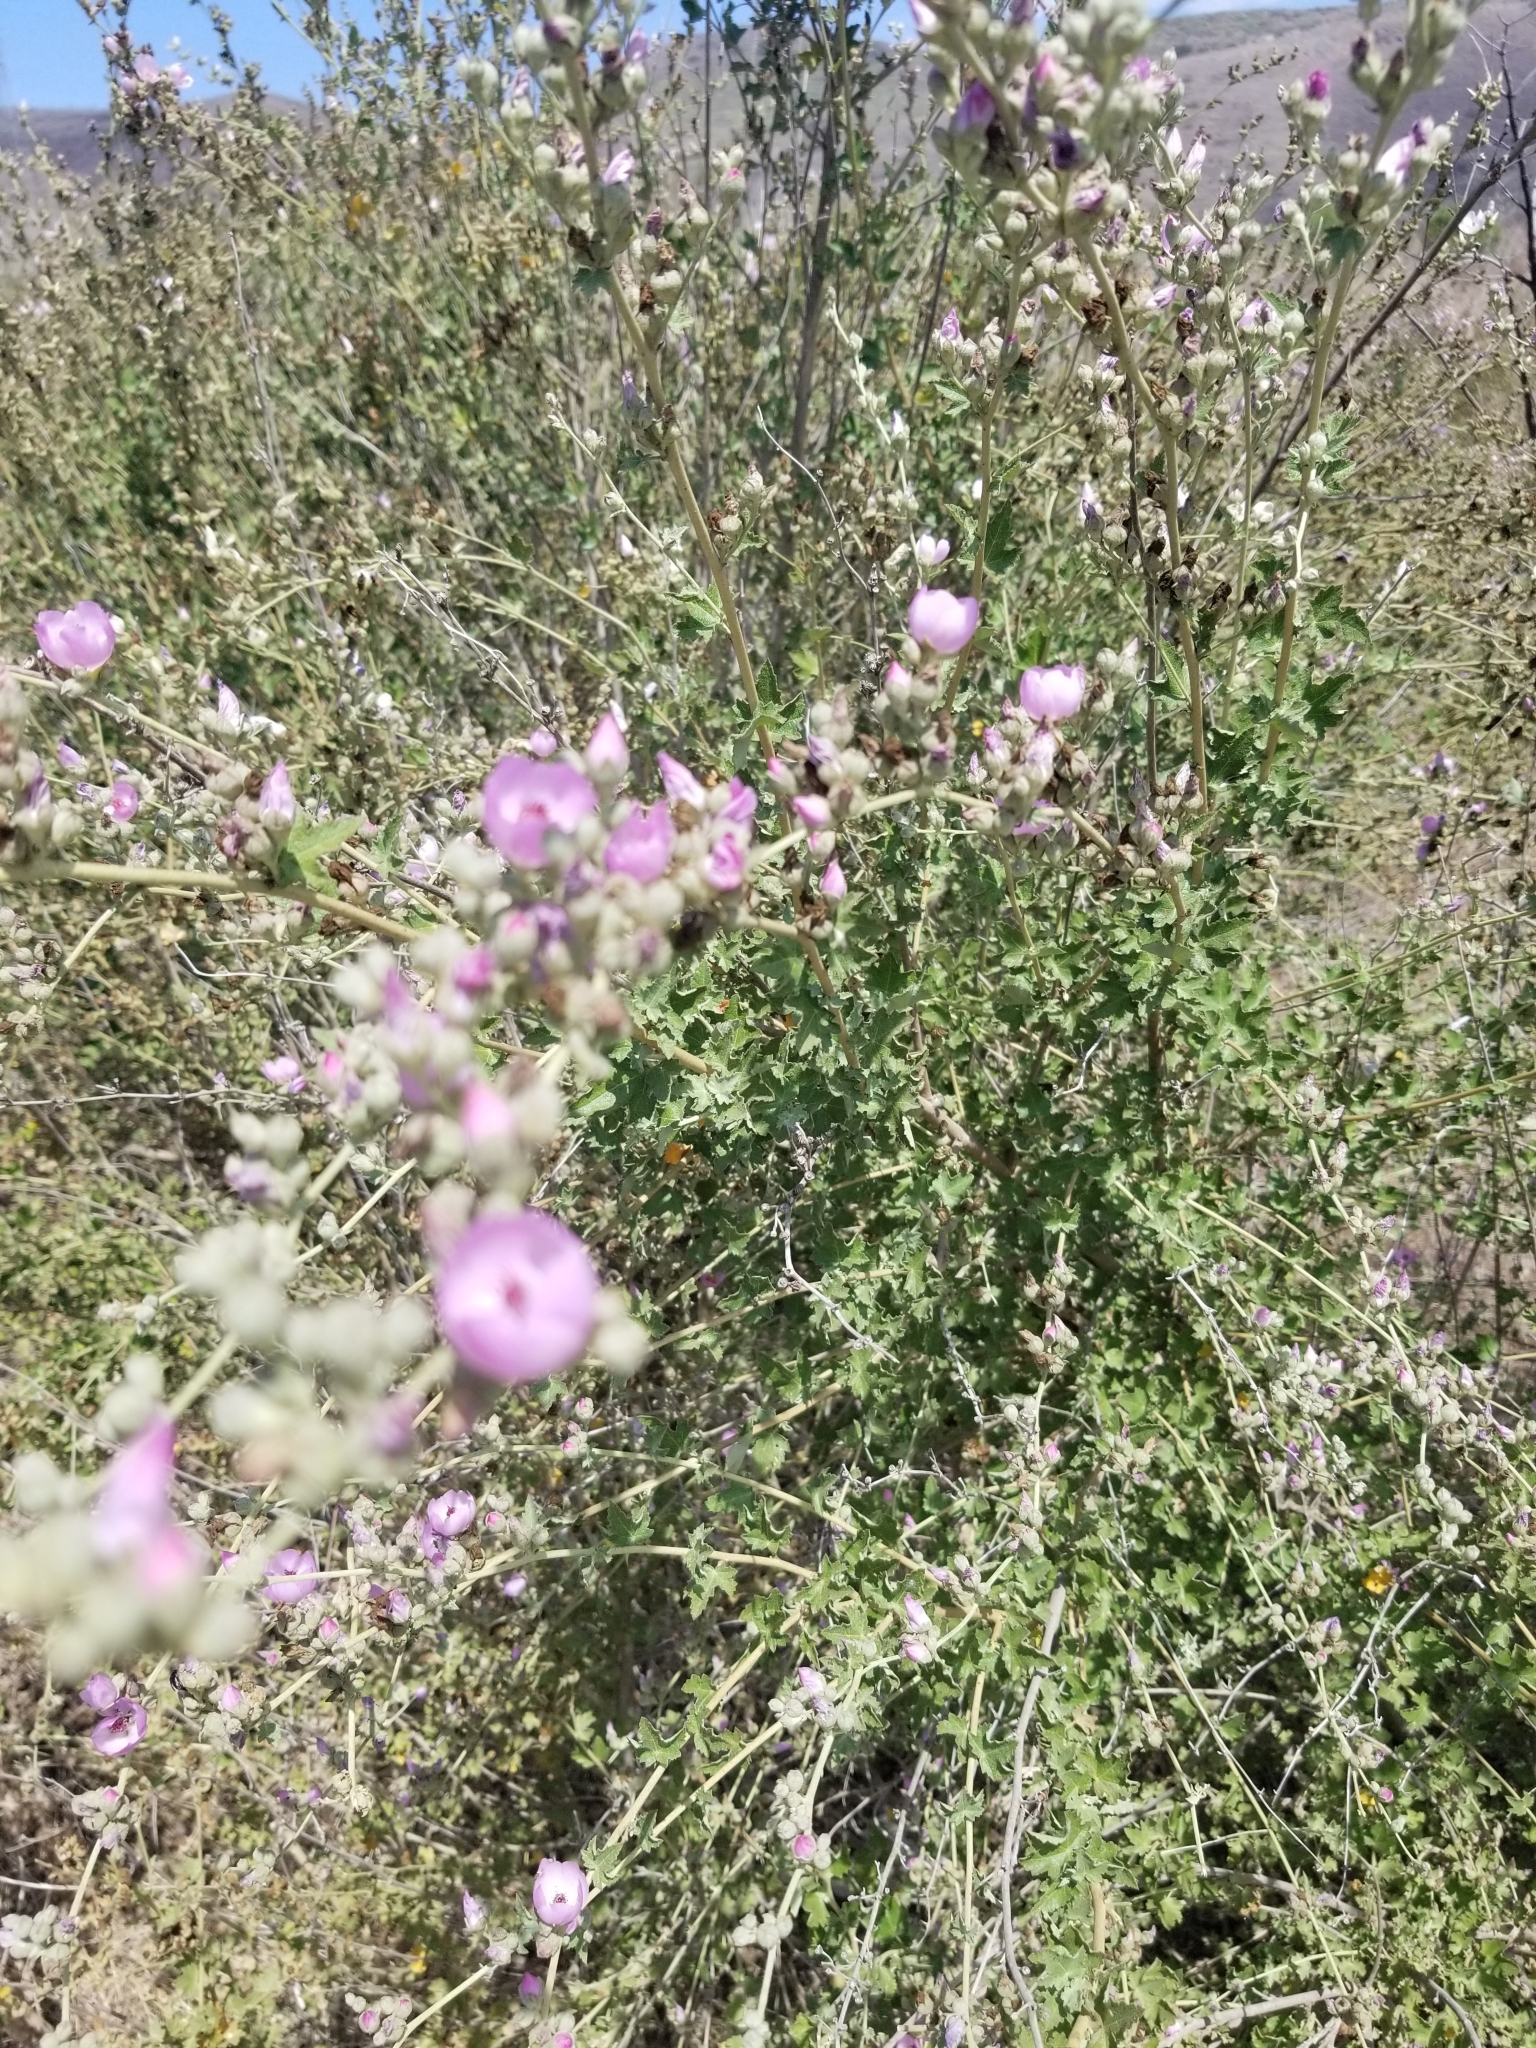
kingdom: Plantae
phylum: Tracheophyta
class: Magnoliopsida
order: Malvales
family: Malvaceae
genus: Malacothamnus
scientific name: Malacothamnus fasciculatus
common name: Sant cruz island bush-mallow
